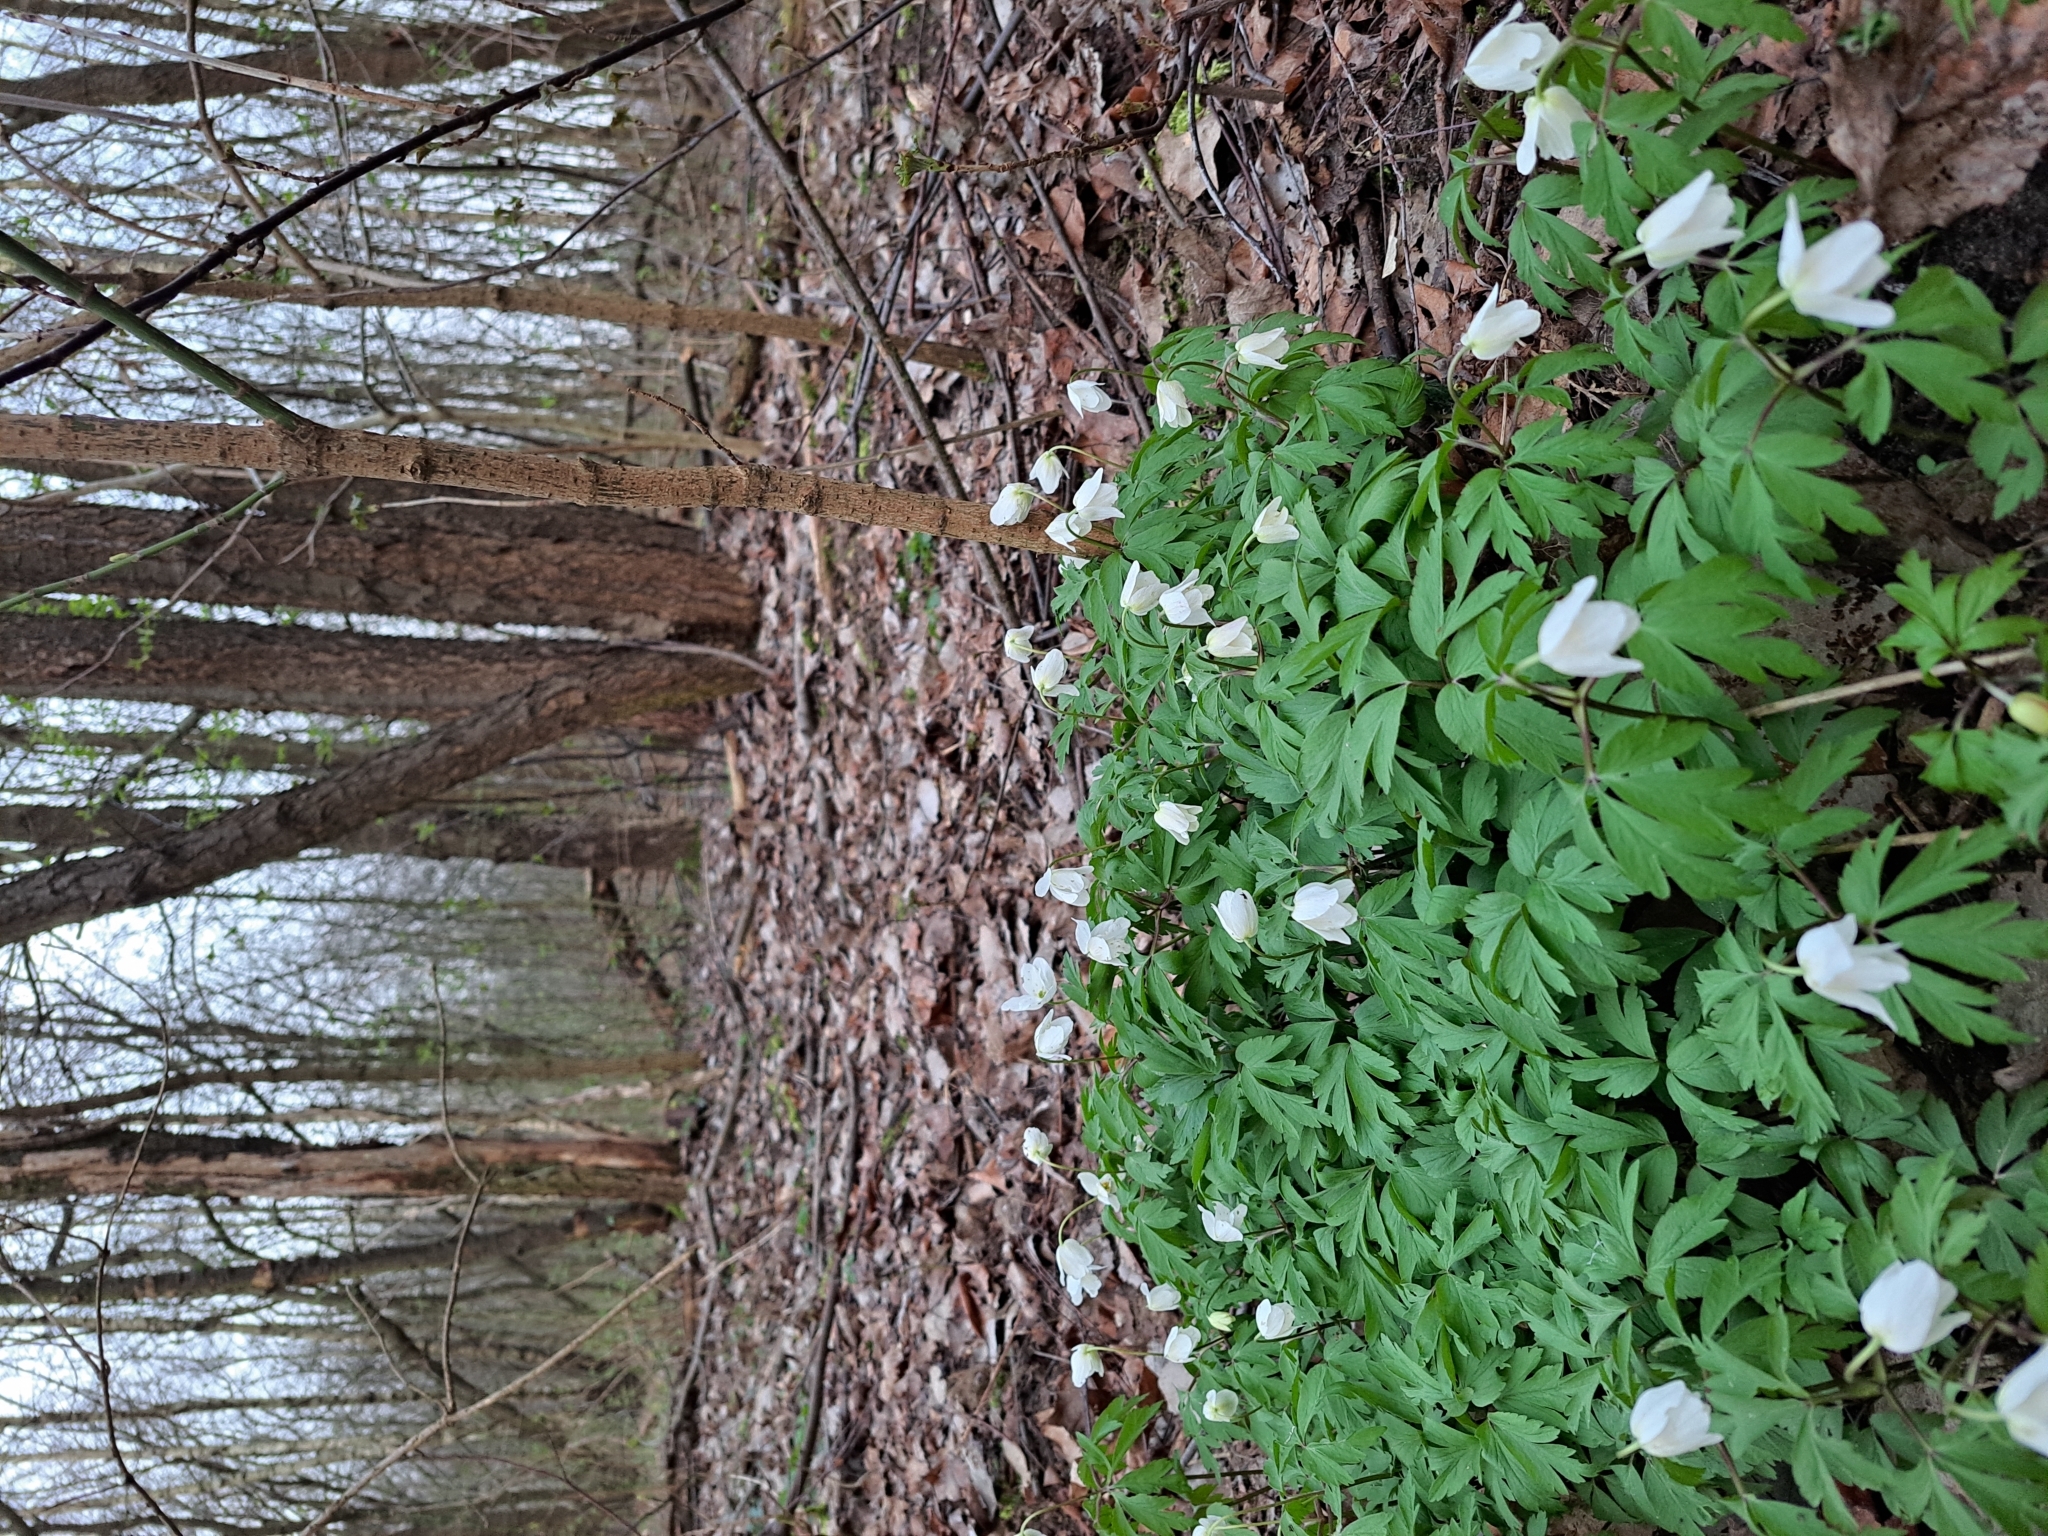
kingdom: Plantae
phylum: Tracheophyta
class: Magnoliopsida
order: Ranunculales
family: Ranunculaceae
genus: Anemone
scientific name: Anemone nemorosa
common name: Wood anemone
